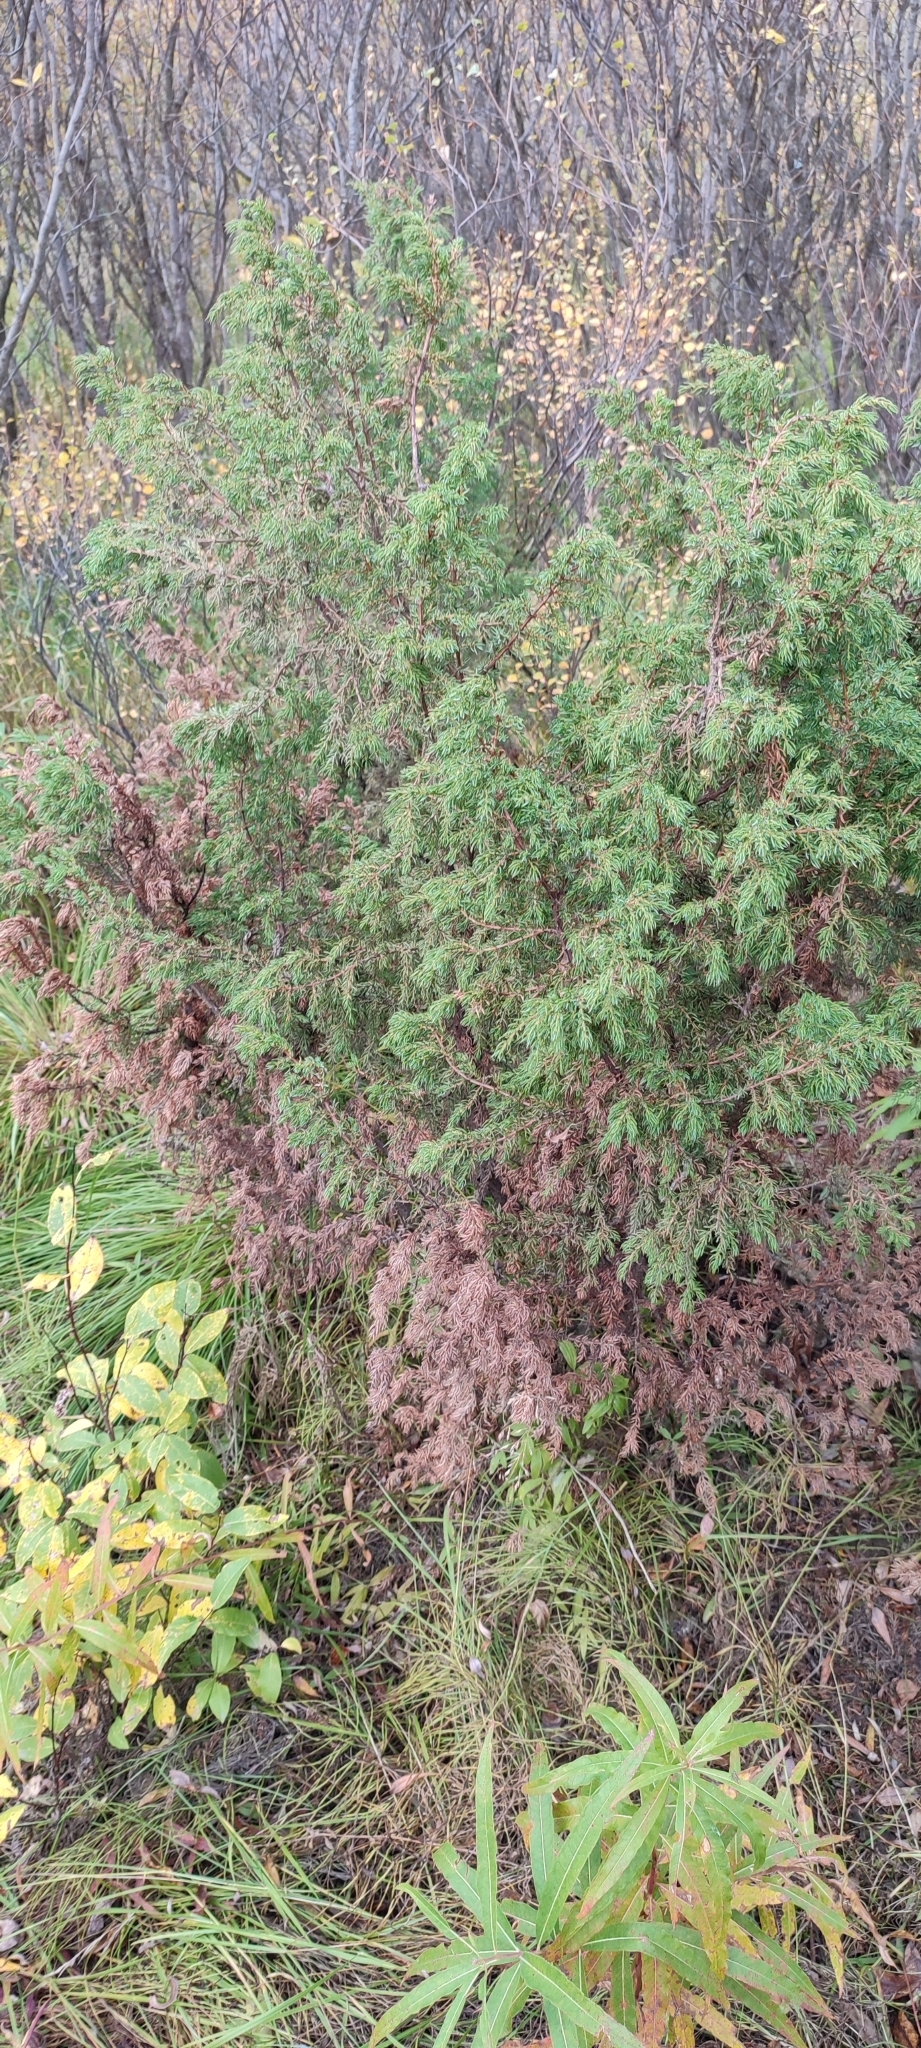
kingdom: Plantae
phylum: Tracheophyta
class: Pinopsida
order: Pinales
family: Cupressaceae
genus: Juniperus
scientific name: Juniperus communis
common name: Common juniper
